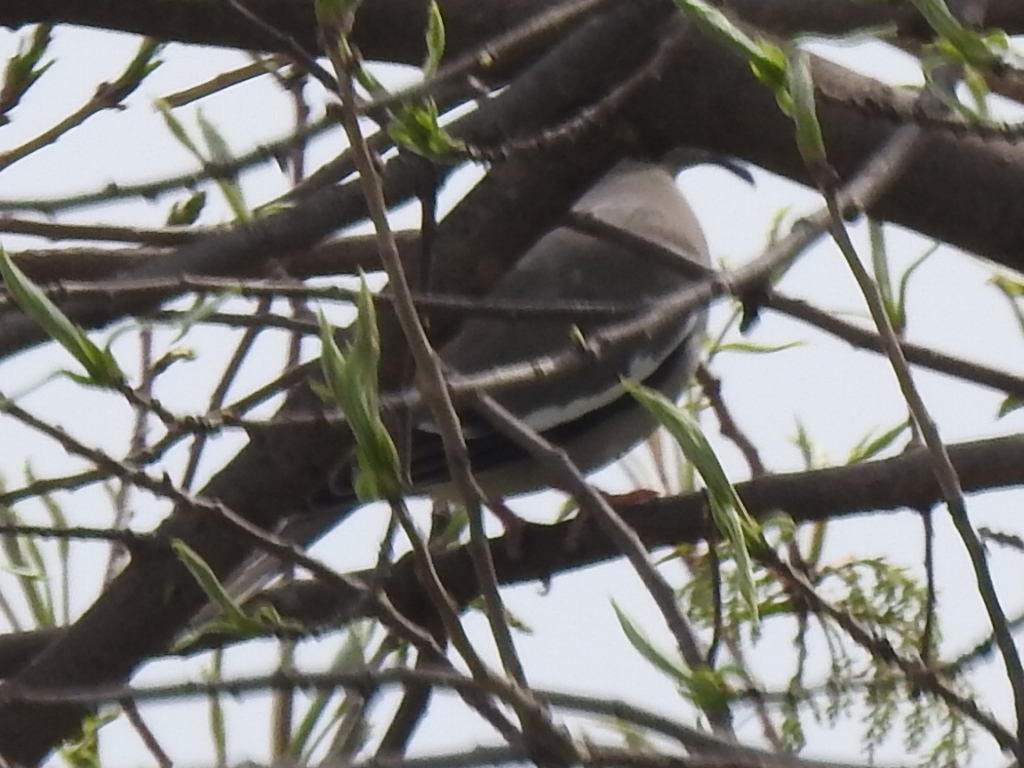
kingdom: Animalia
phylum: Chordata
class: Aves
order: Columbiformes
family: Columbidae
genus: Zenaida
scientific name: Zenaida asiatica
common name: White-winged dove
